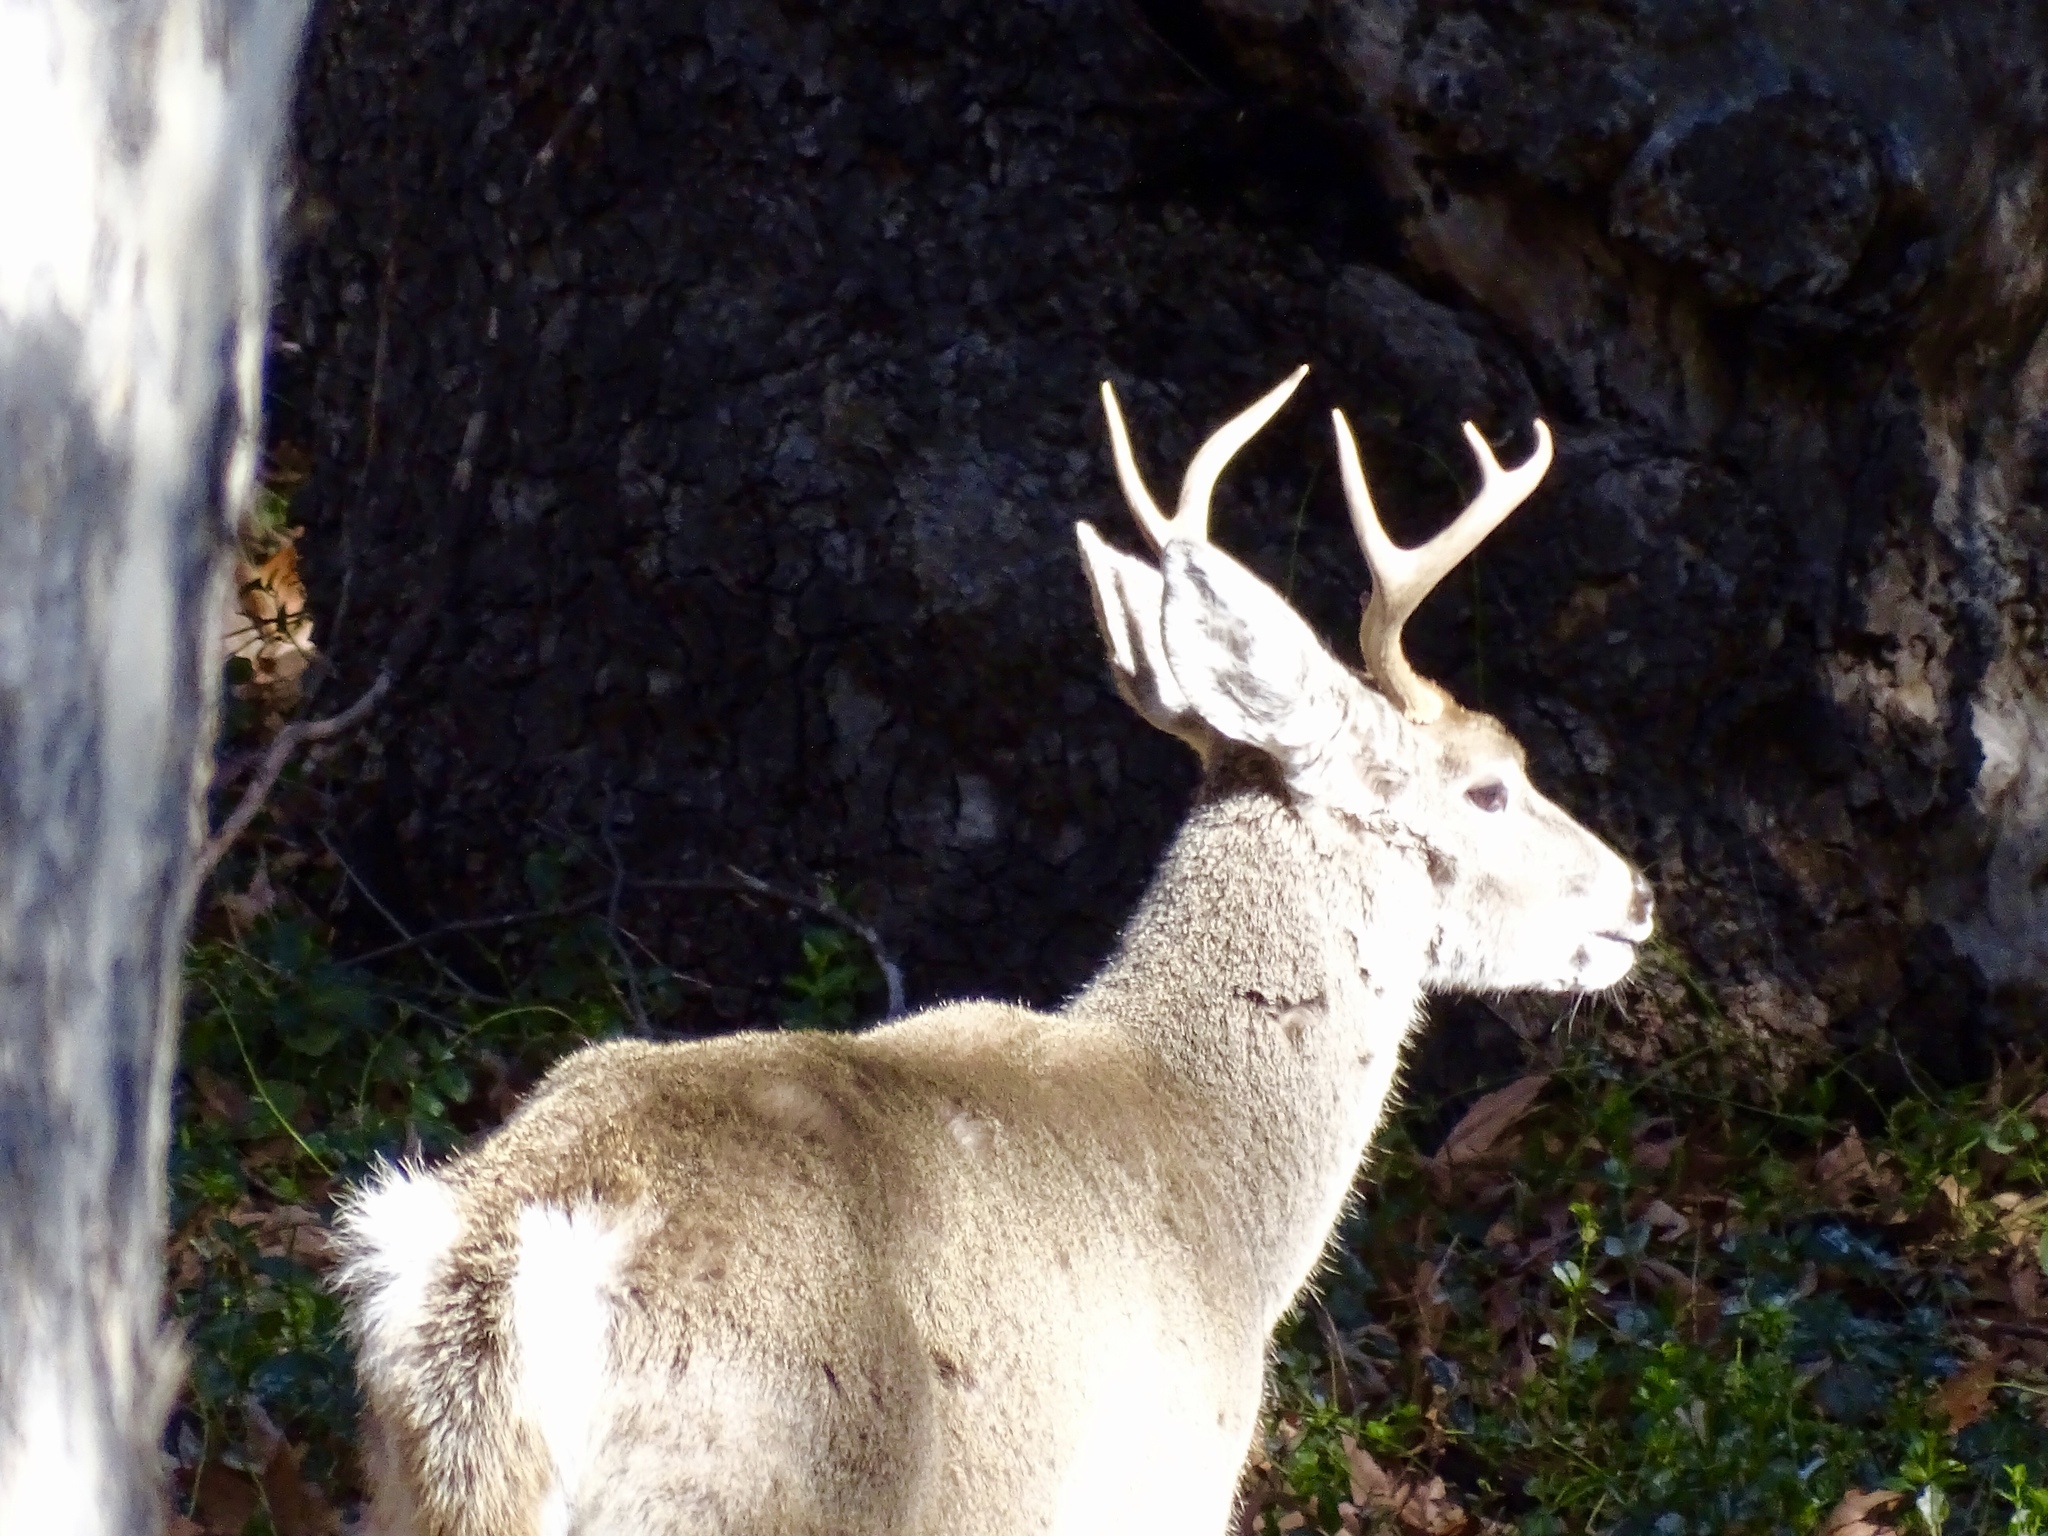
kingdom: Animalia
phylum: Chordata
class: Mammalia
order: Artiodactyla
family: Cervidae
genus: Odocoileus
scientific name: Odocoileus virginianus
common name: White-tailed deer
